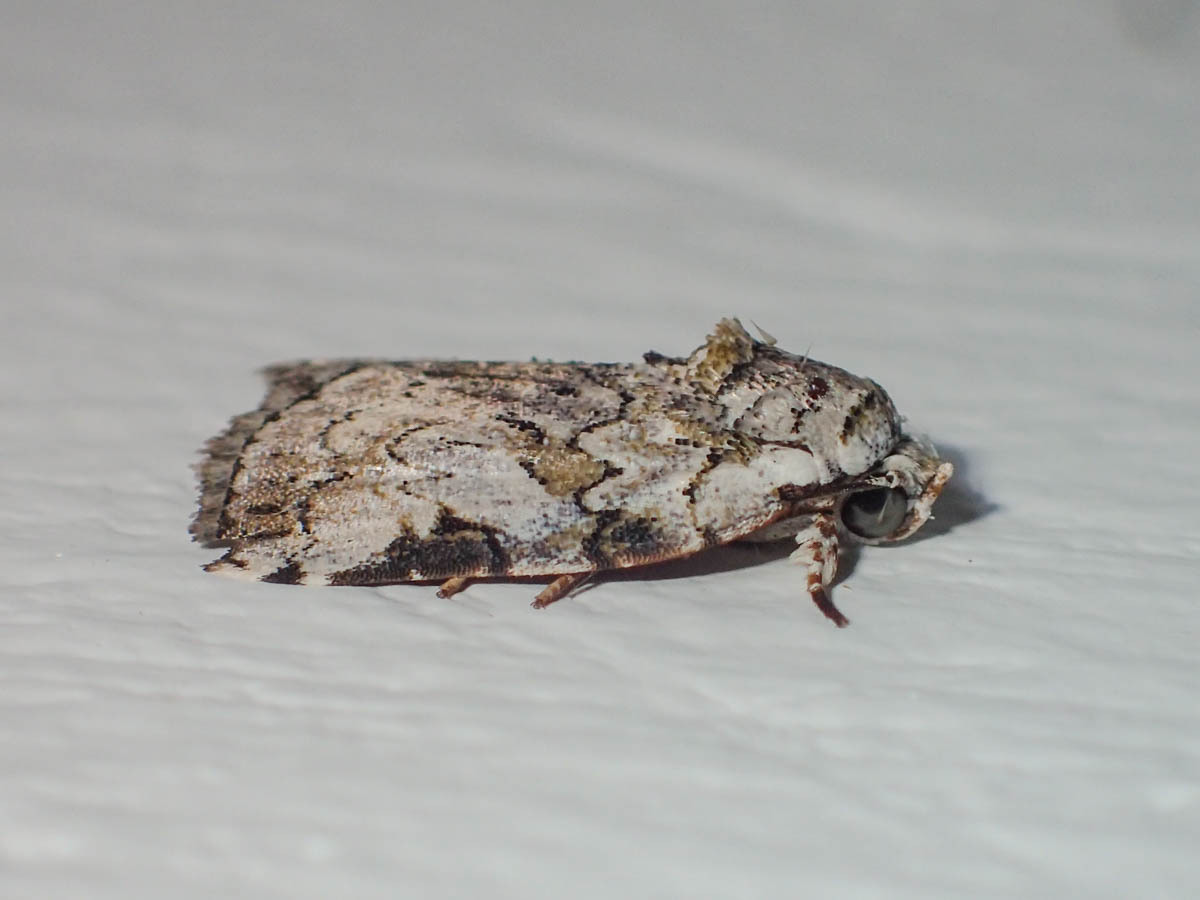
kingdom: Animalia
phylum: Arthropoda
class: Insecta
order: Lepidoptera
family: Nolidae
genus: Garella
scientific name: Garella Characoma distincta
